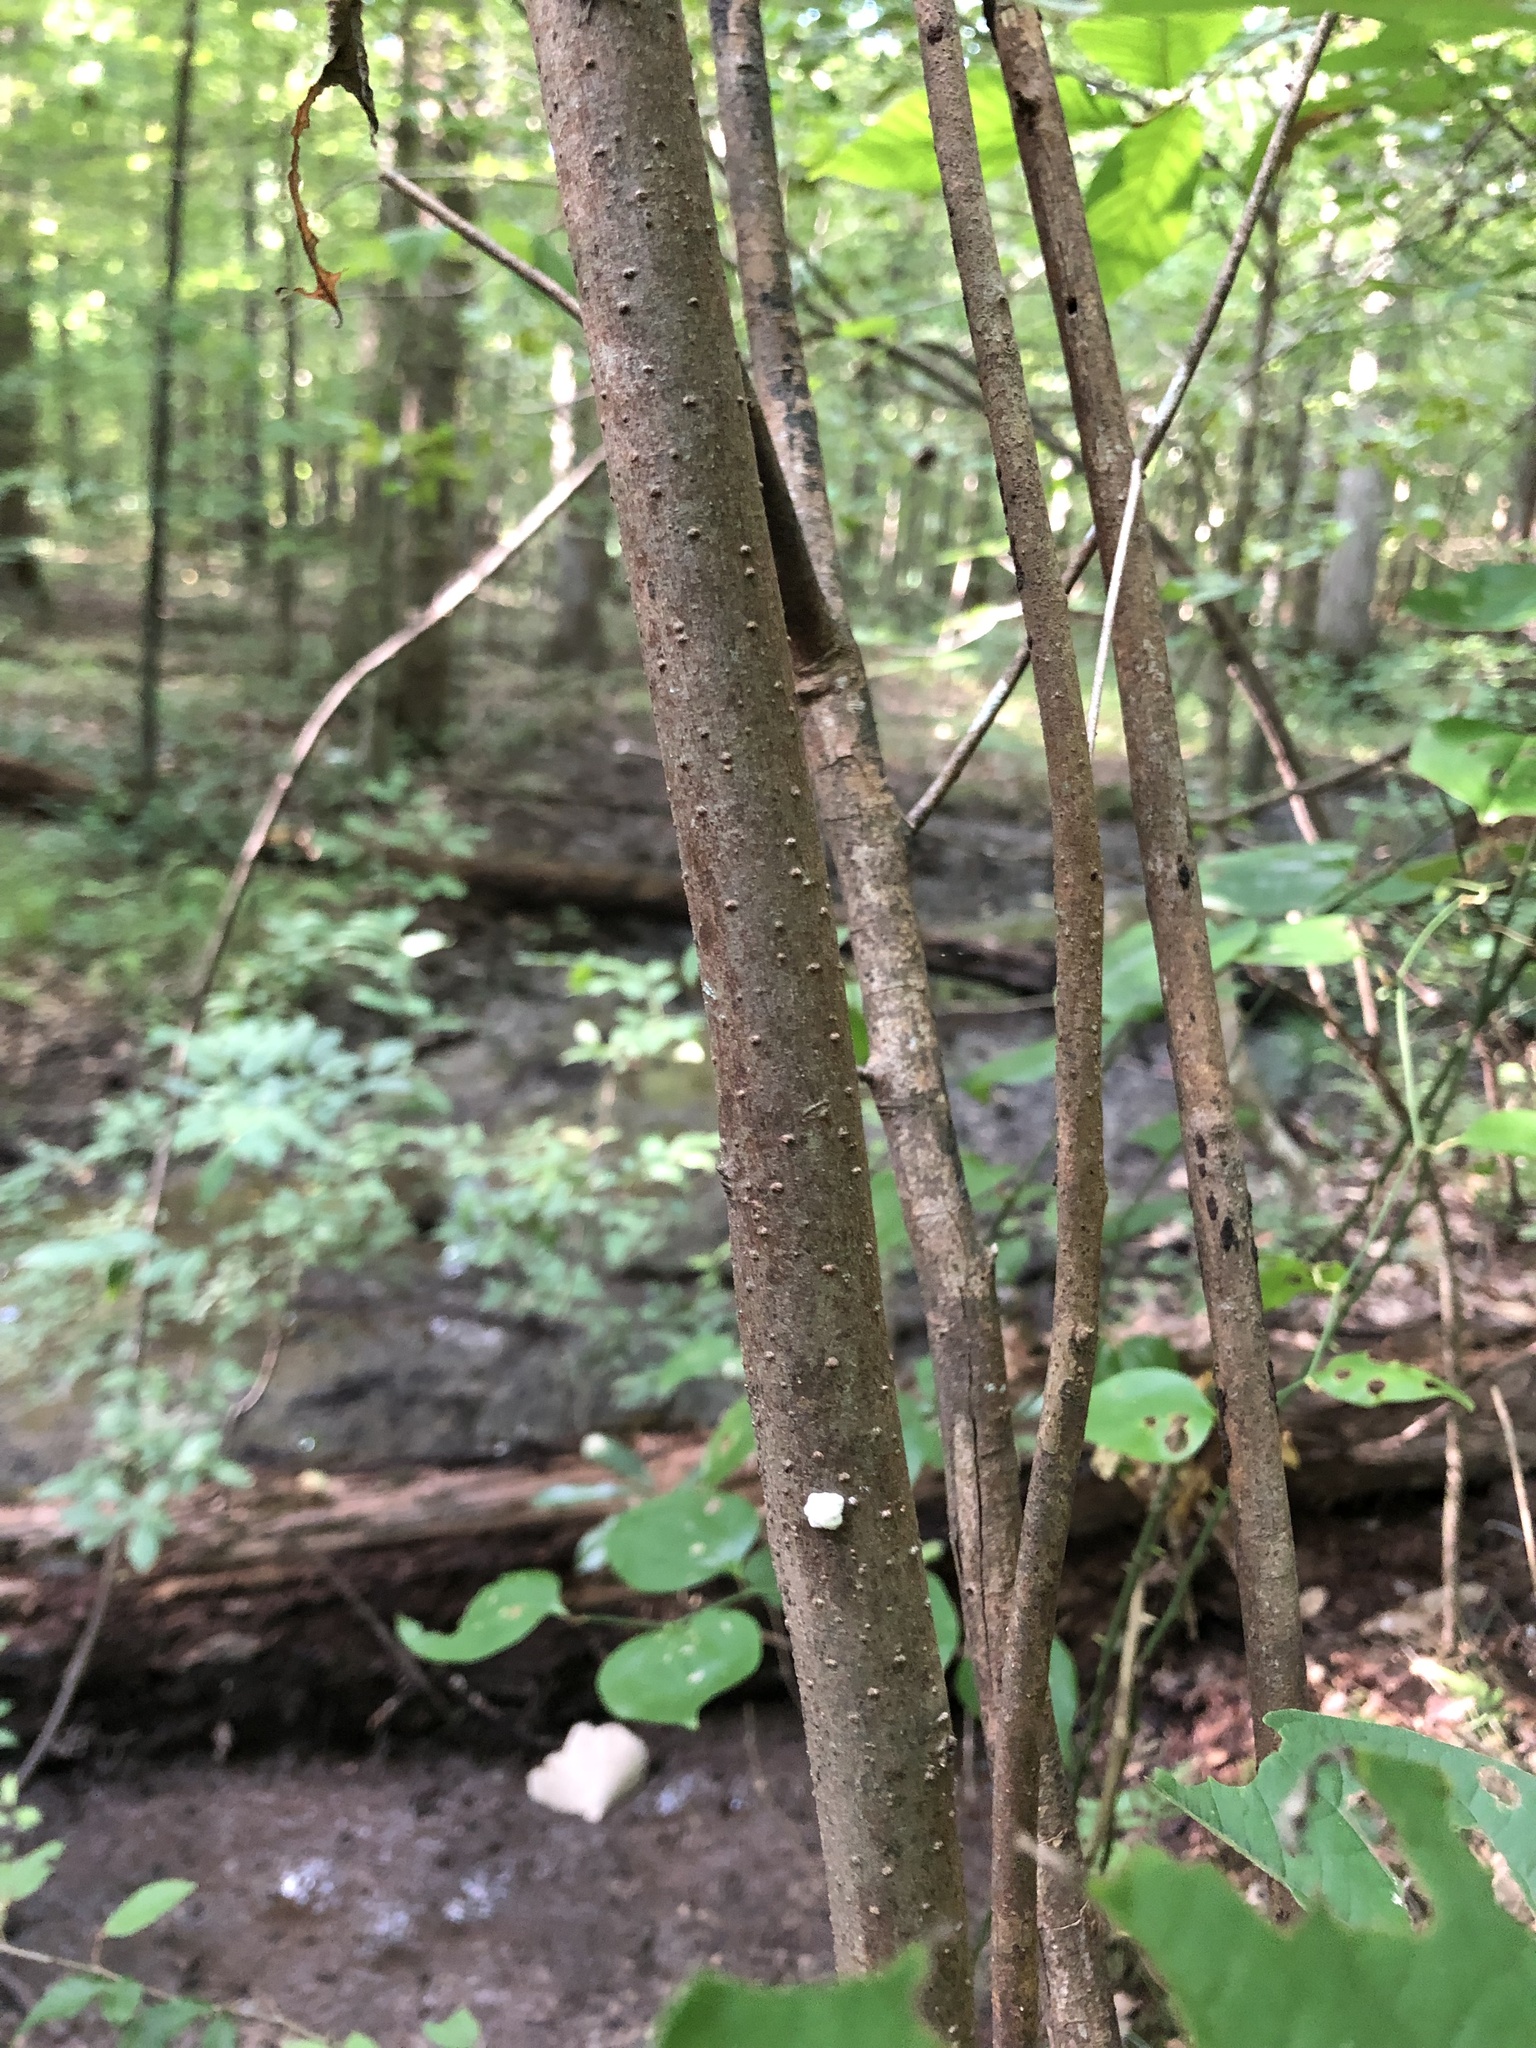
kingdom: Plantae
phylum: Tracheophyta
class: Magnoliopsida
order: Laurales
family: Lauraceae
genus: Lindera
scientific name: Lindera benzoin
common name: Spicebush
